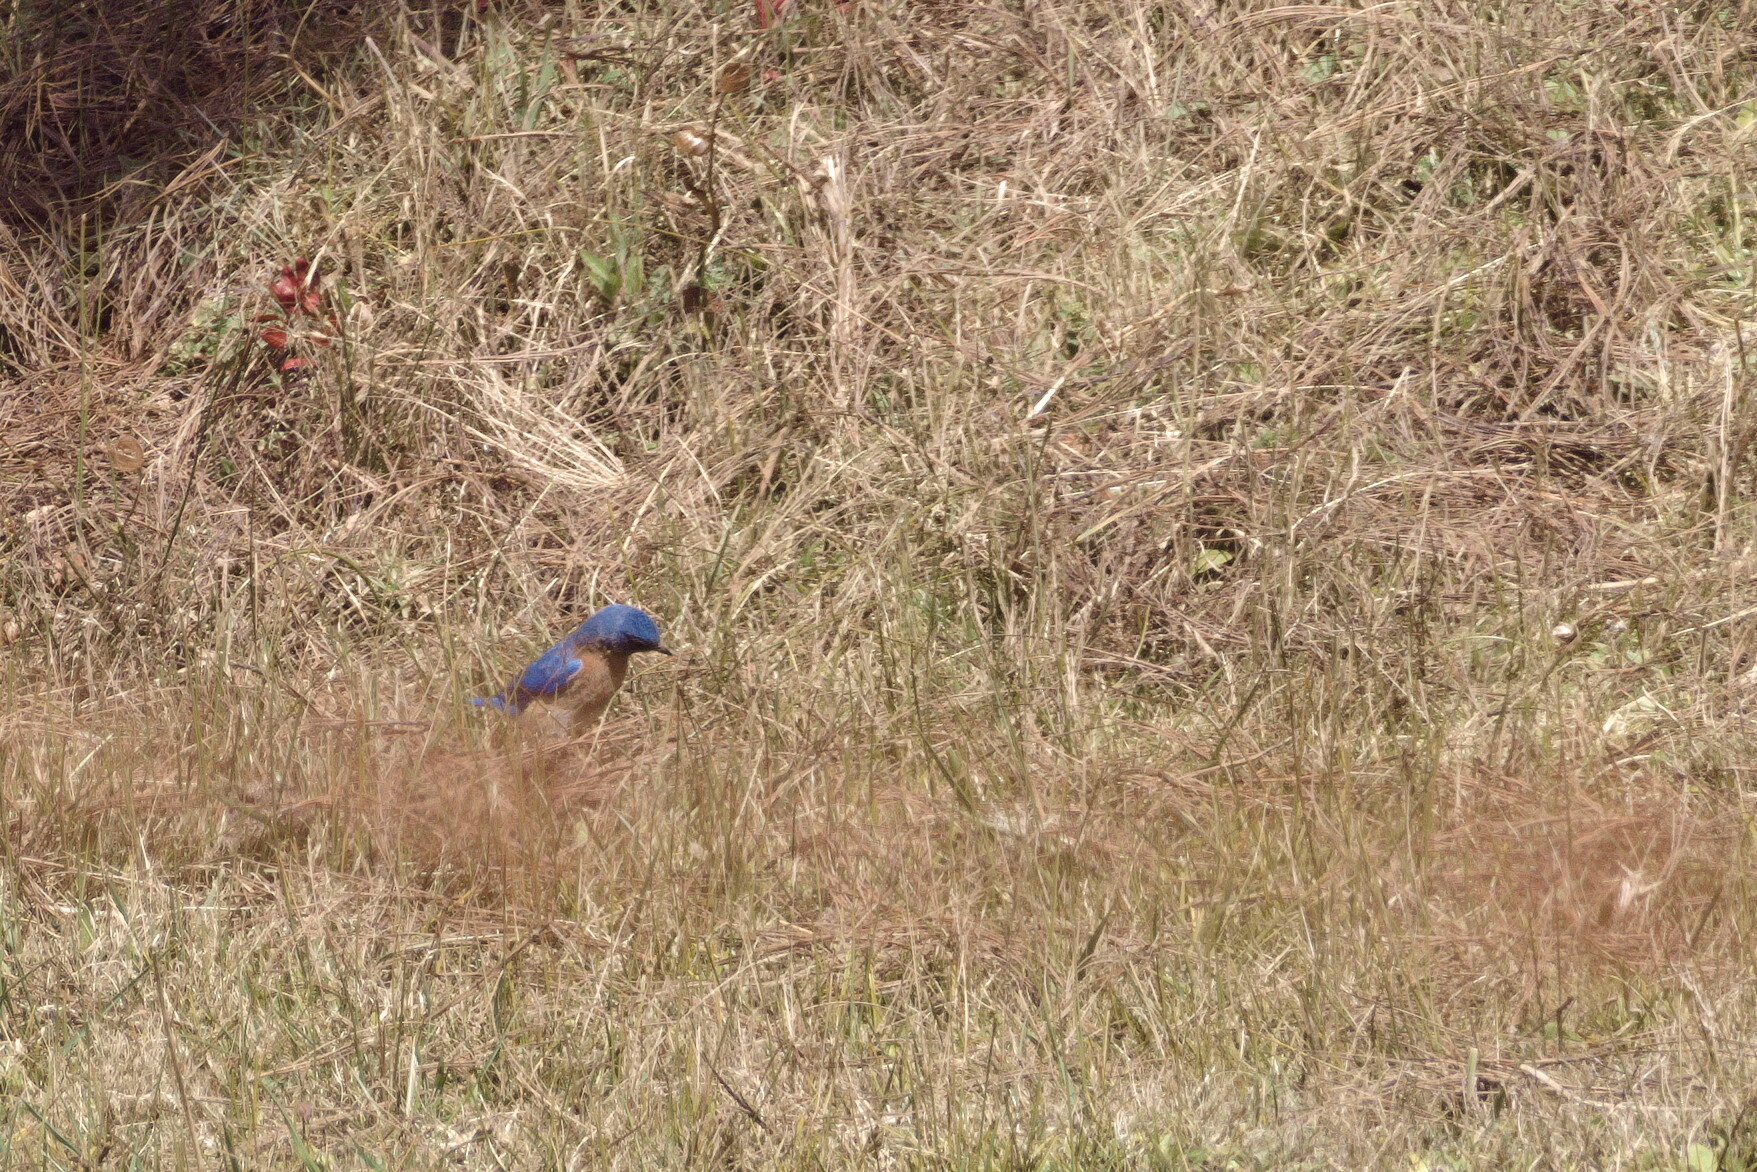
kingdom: Animalia
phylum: Chordata
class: Aves
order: Passeriformes
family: Turdidae
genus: Sialia
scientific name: Sialia sialis
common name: Eastern bluebird
